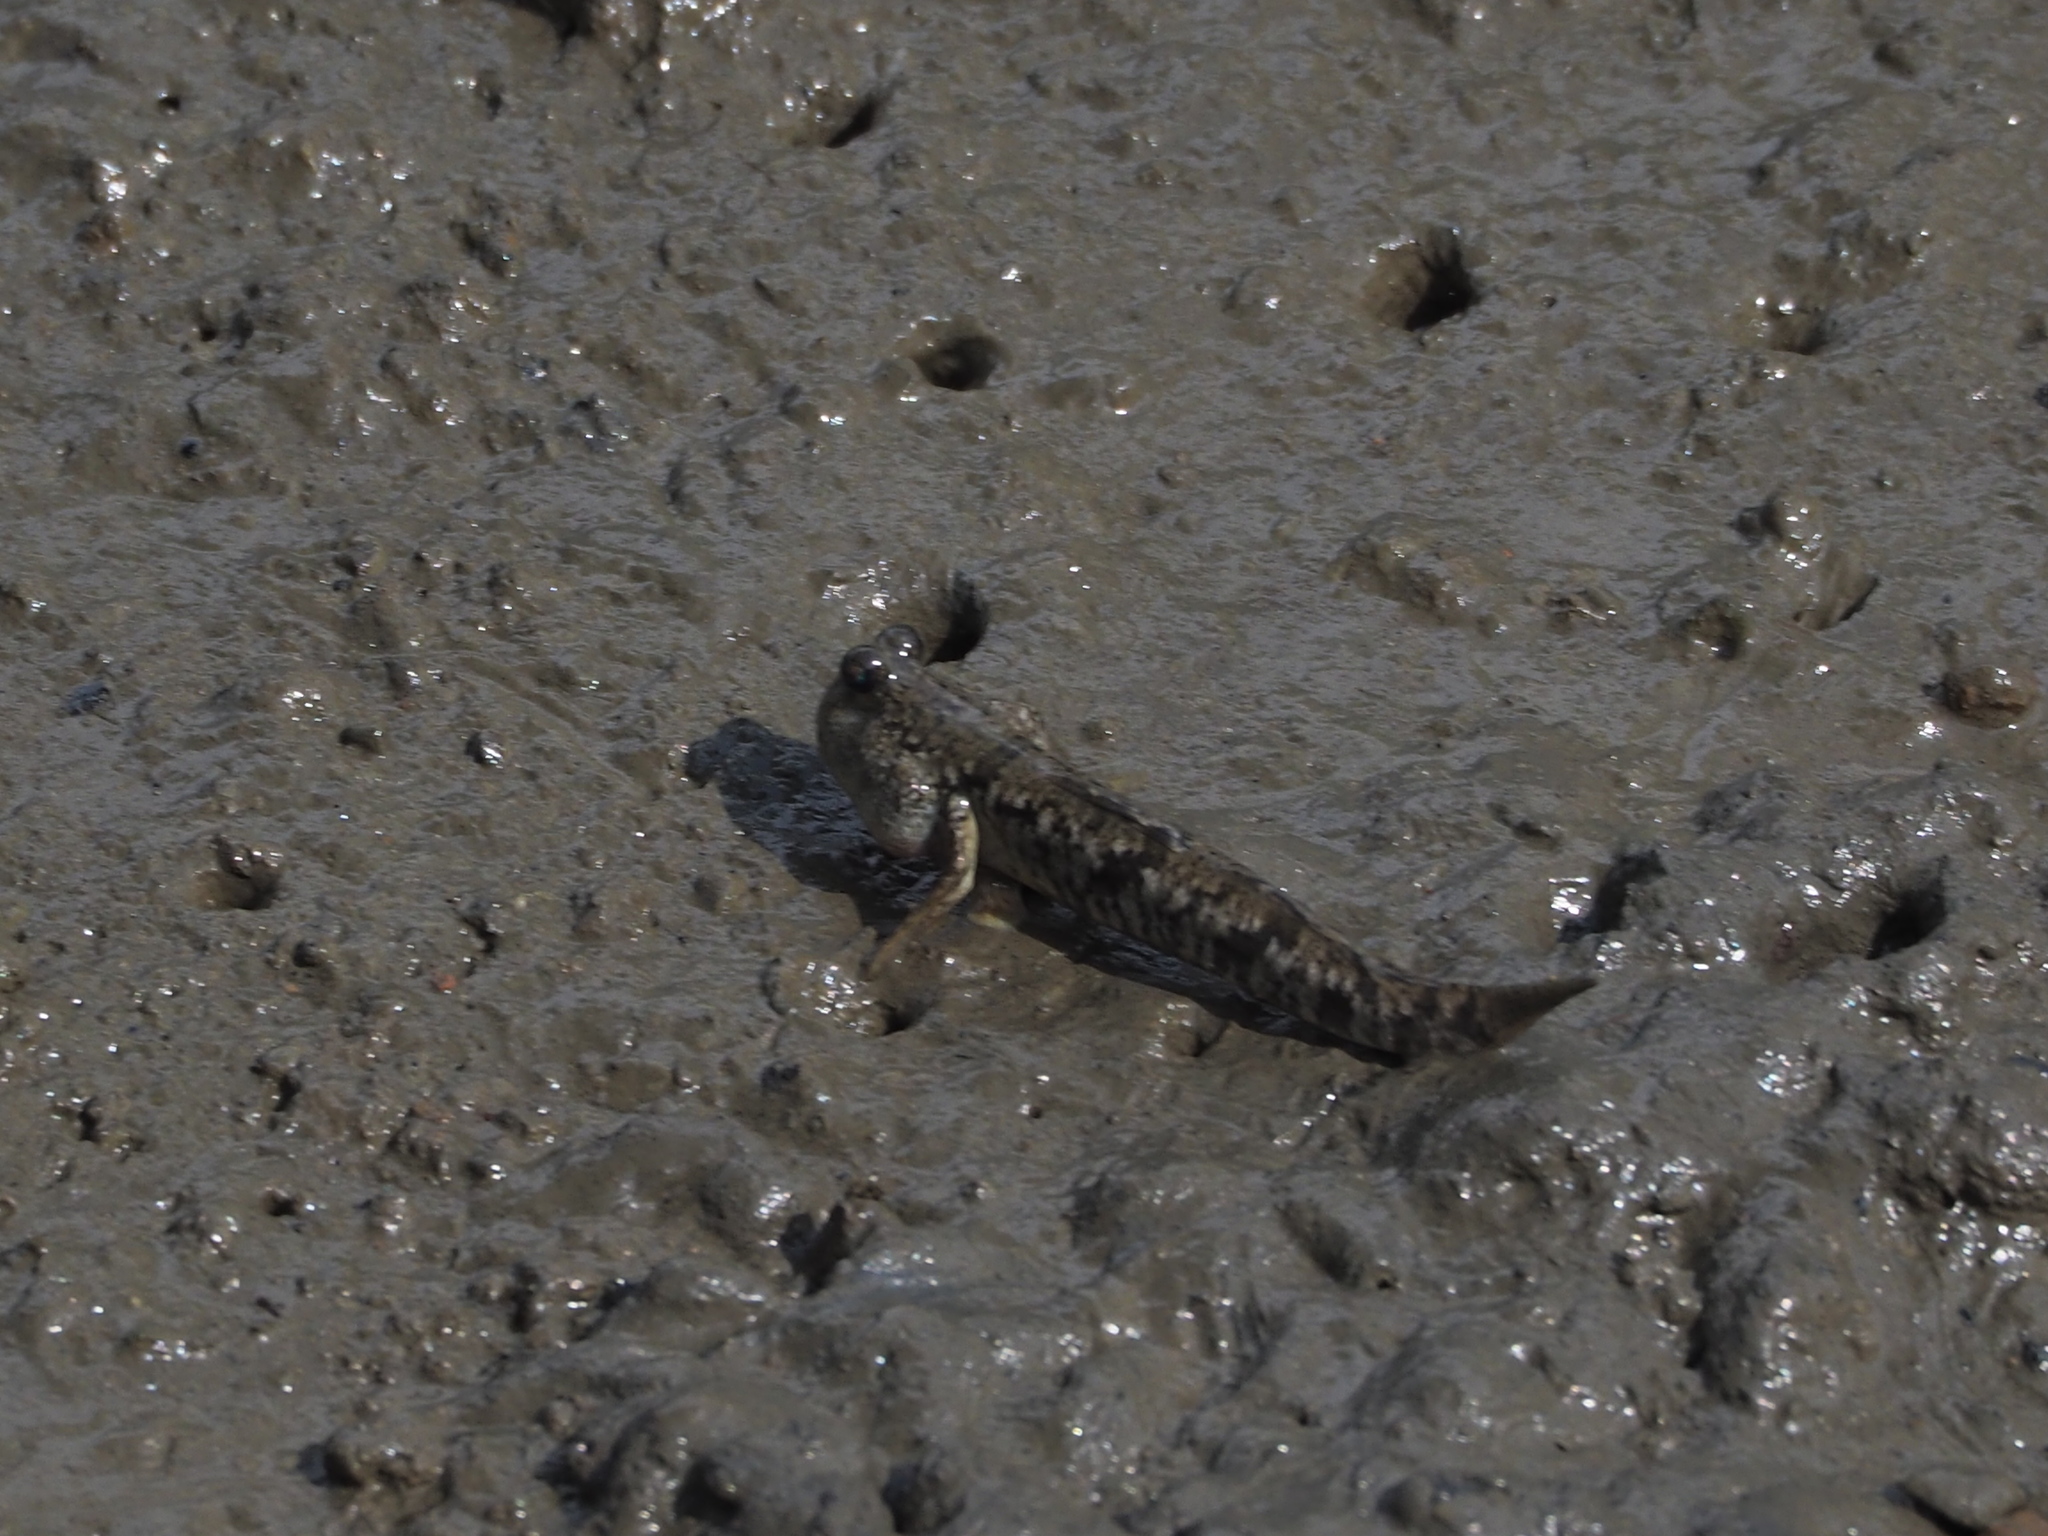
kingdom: Animalia
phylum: Chordata
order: Perciformes
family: Gobiidae
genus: Periophthalmus
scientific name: Periophthalmus modestus
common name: Black goby
